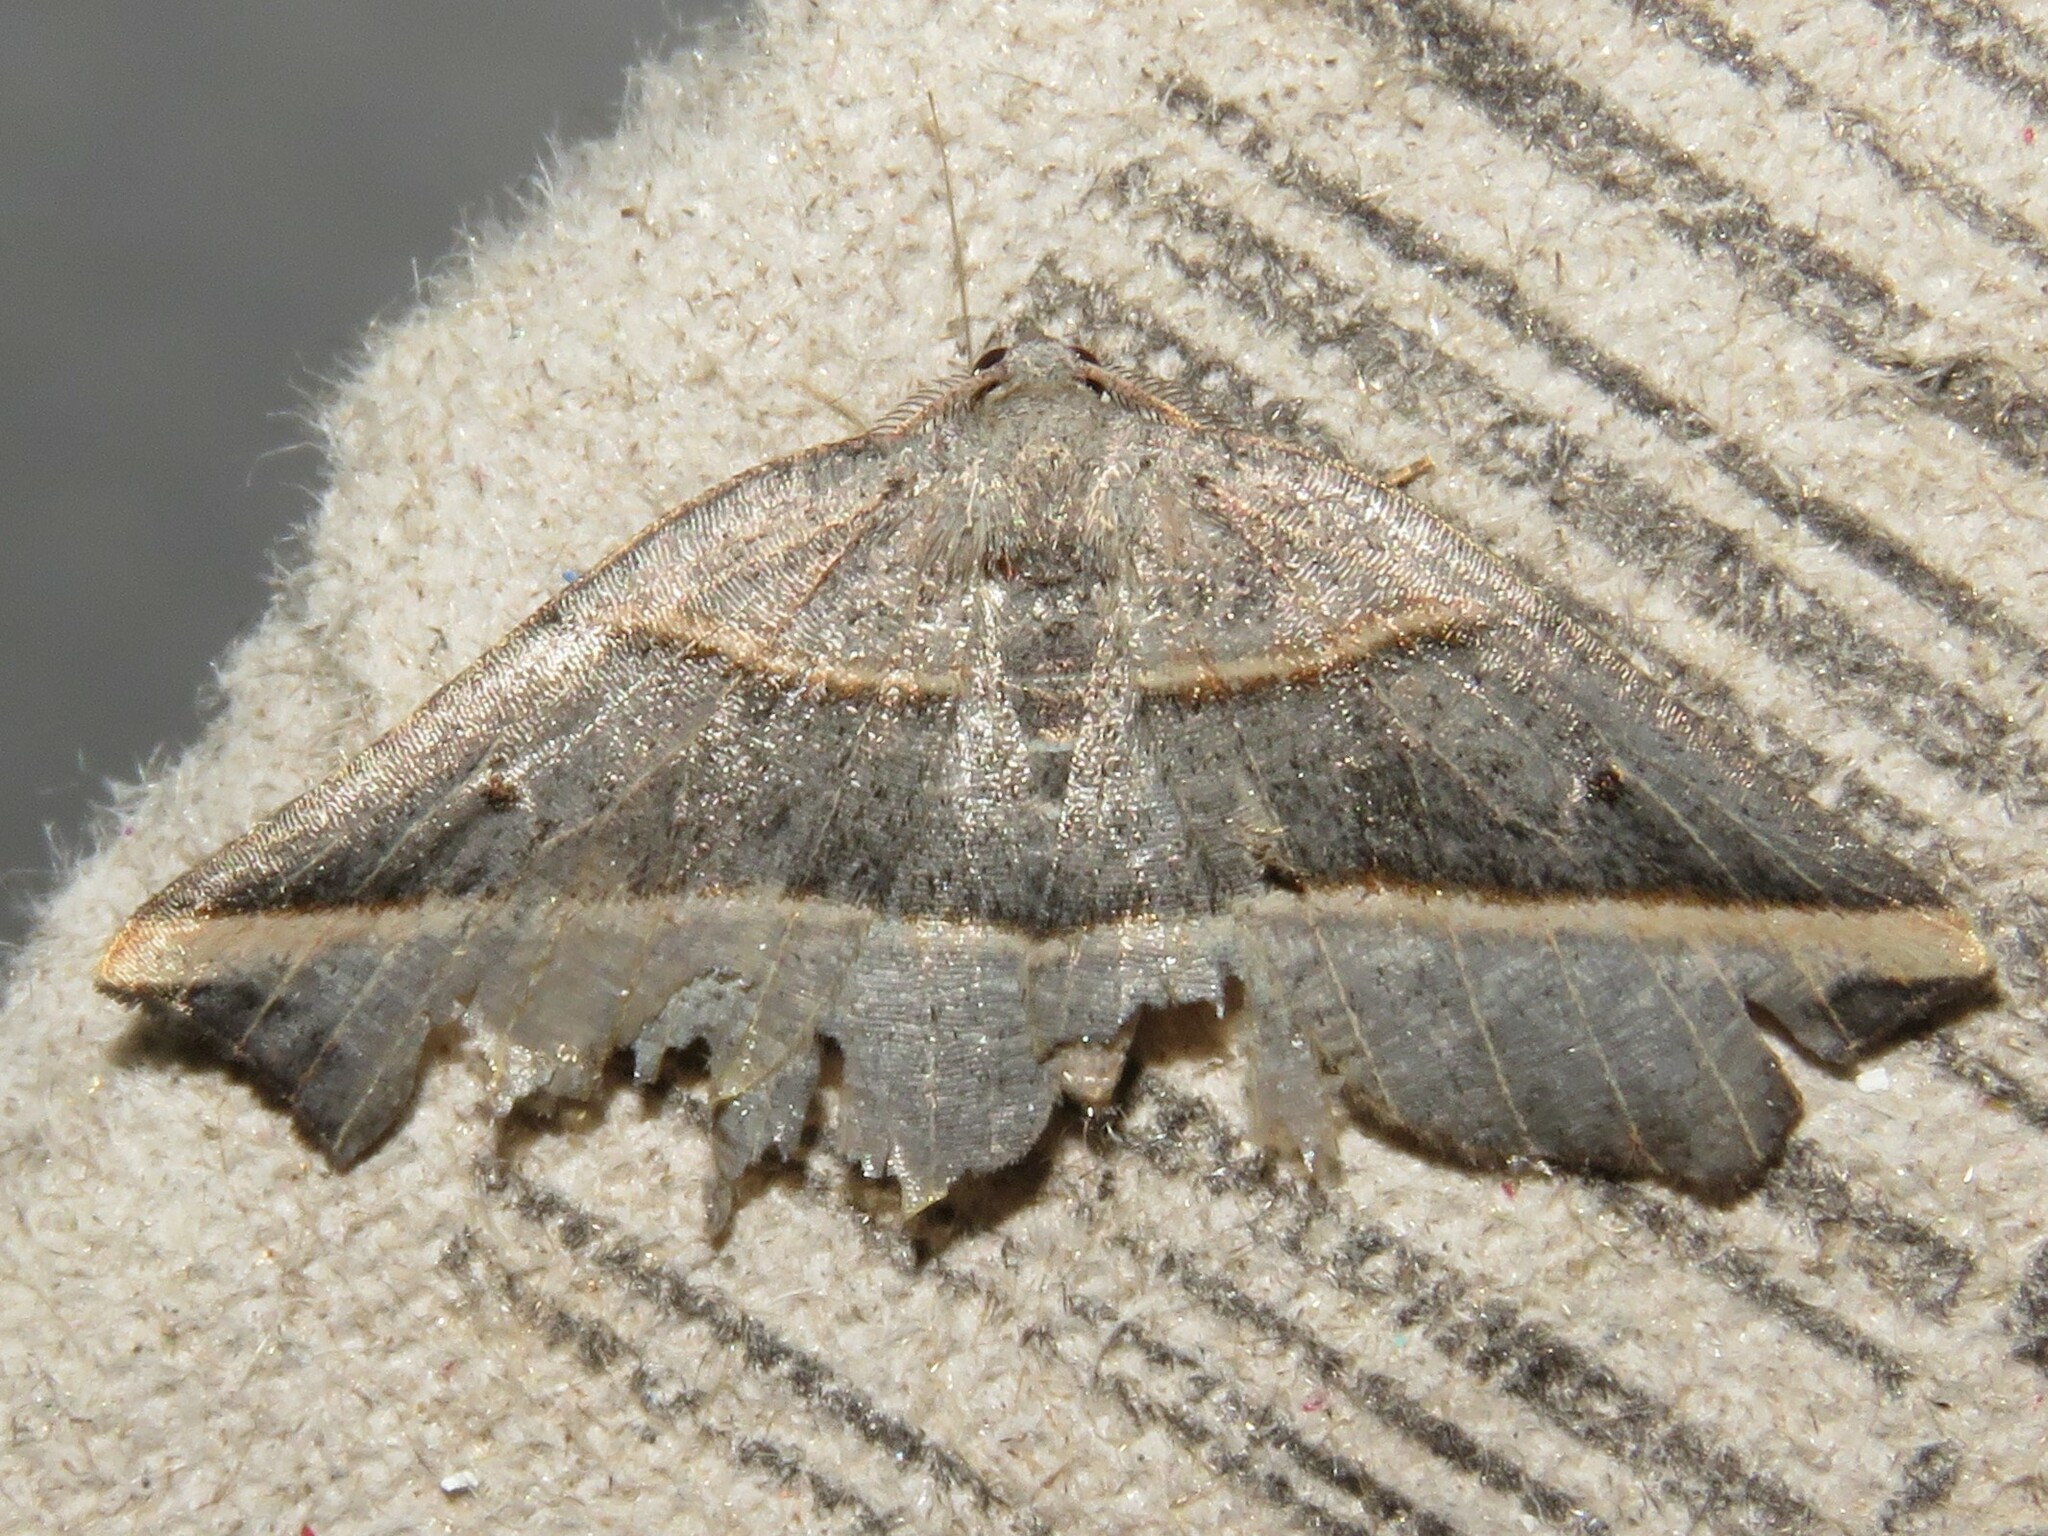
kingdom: Animalia
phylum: Arthropoda
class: Insecta
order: Lepidoptera
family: Geometridae
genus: Metanema
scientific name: Metanema determinata
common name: Dark metanema
